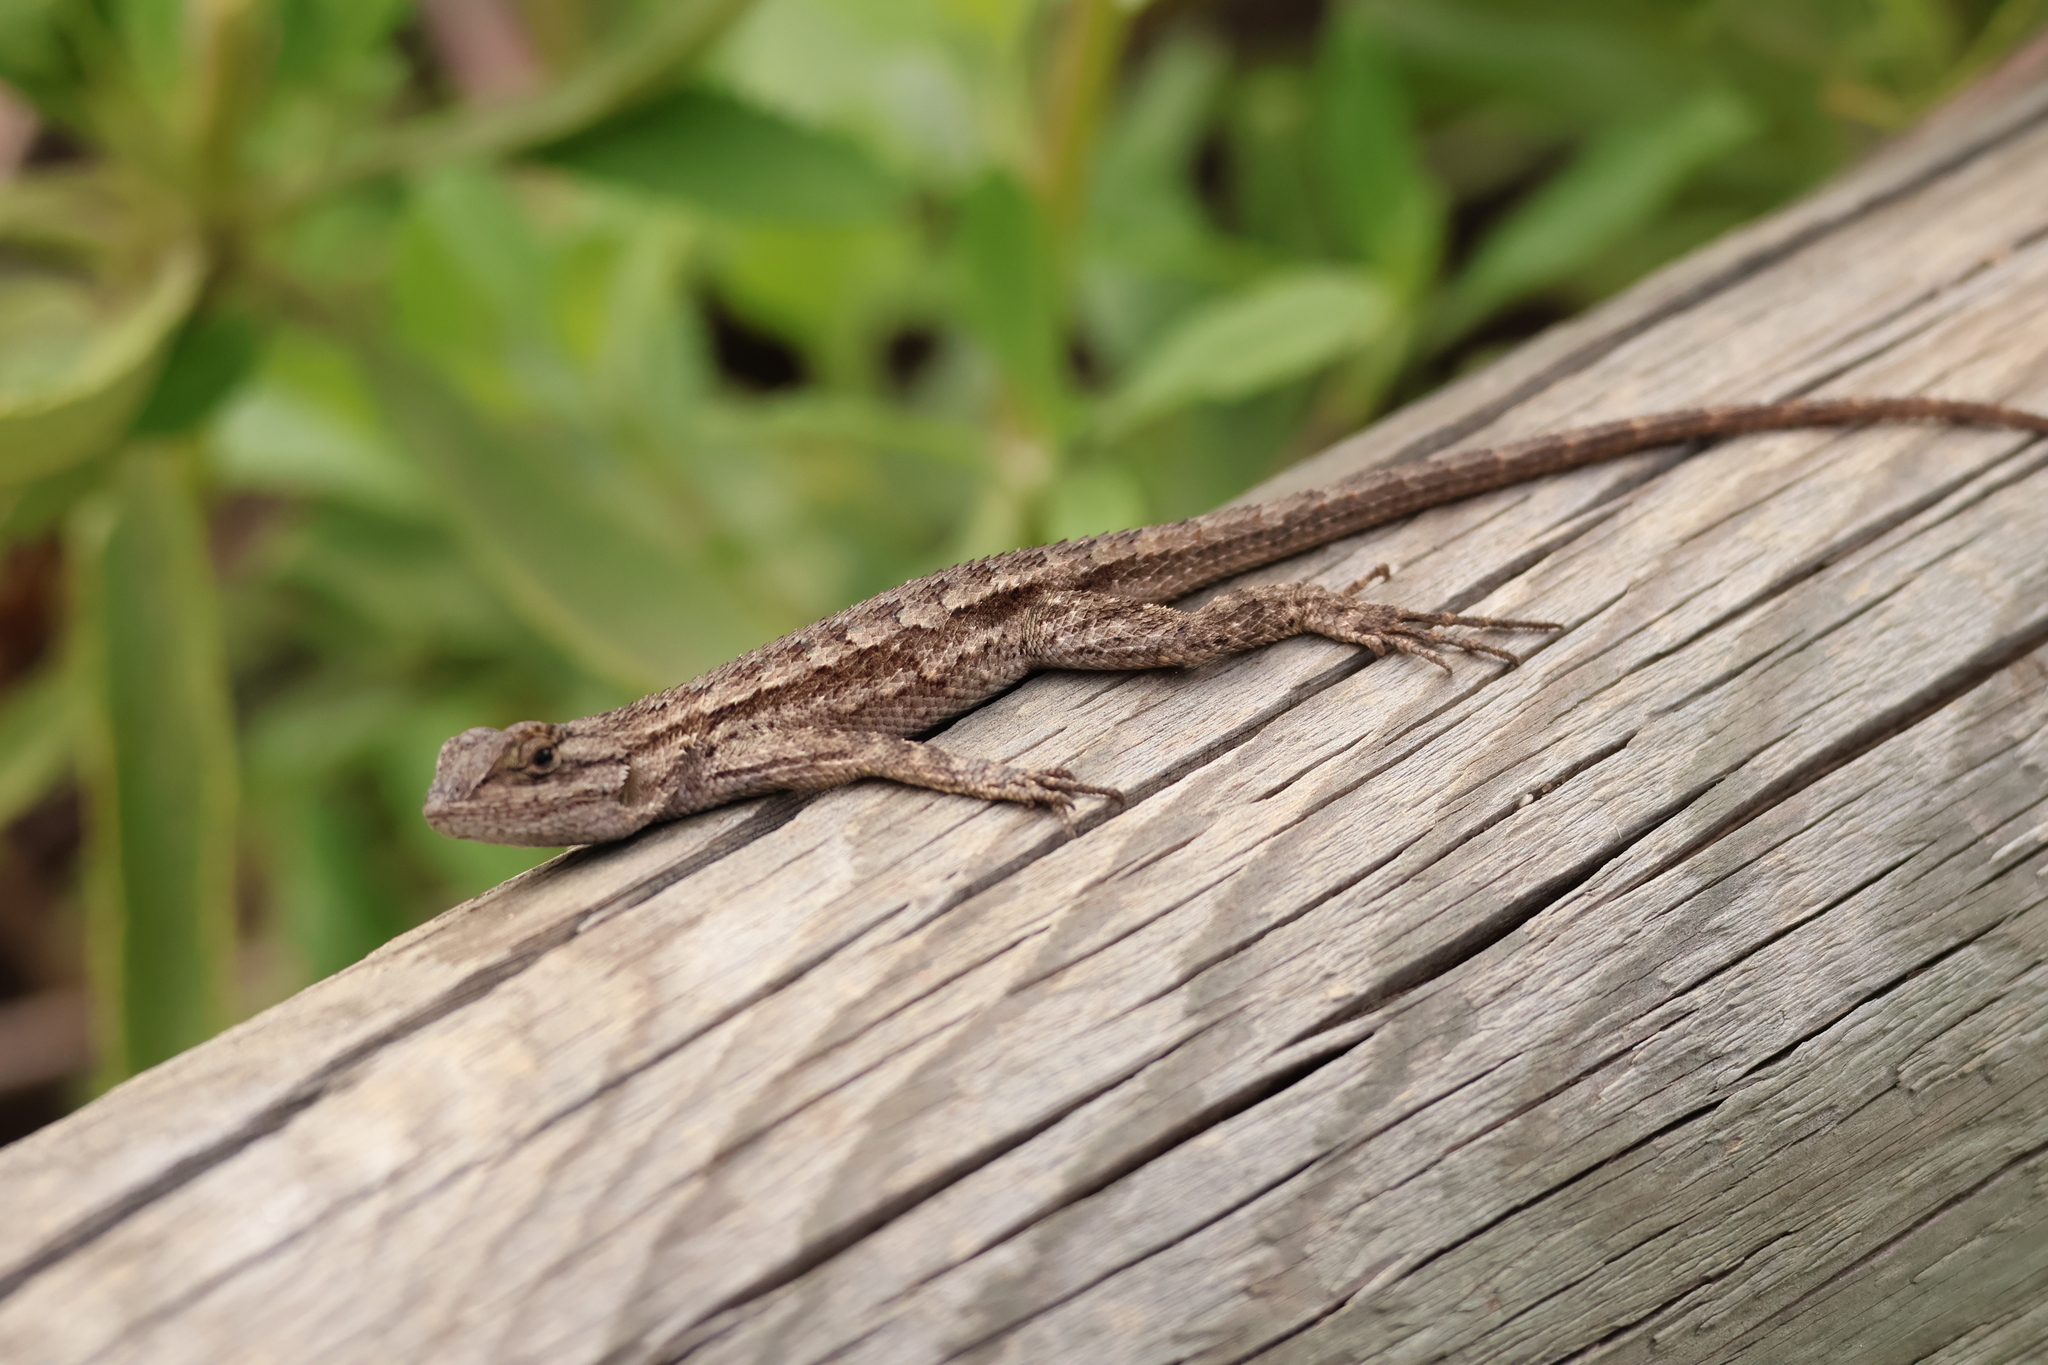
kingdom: Animalia
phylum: Chordata
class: Squamata
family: Phrynosomatidae
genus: Sceloporus
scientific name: Sceloporus occidentalis
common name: Western fence lizard
